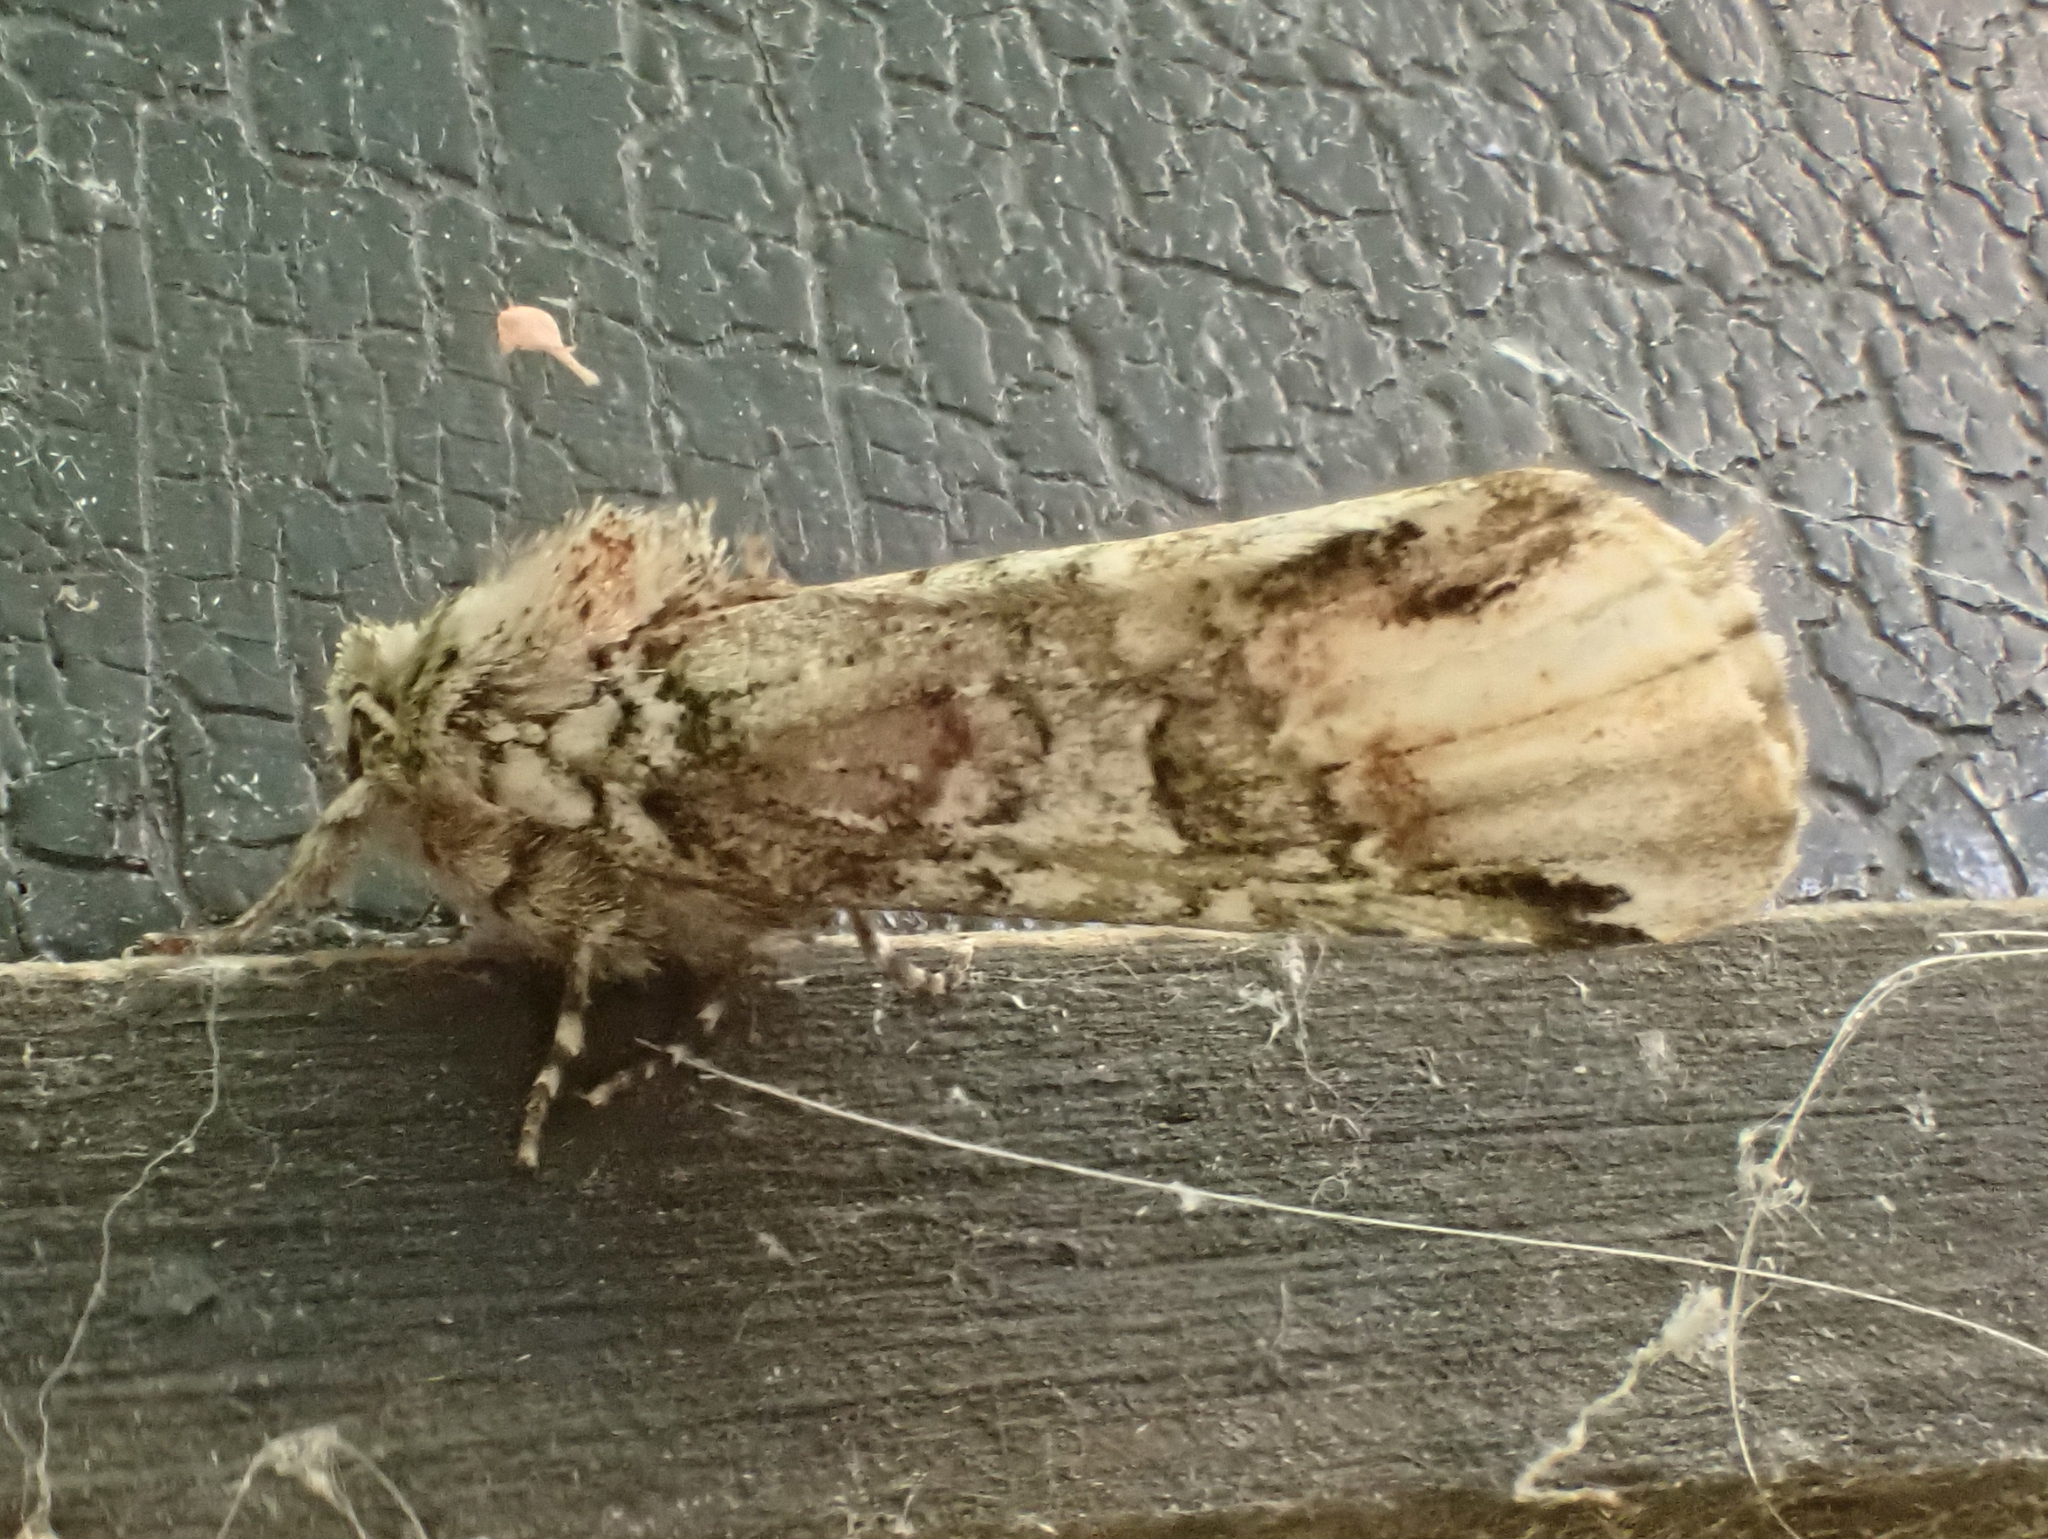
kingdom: Animalia
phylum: Arthropoda
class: Insecta
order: Lepidoptera
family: Notodontidae
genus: Schizura
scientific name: Schizura
